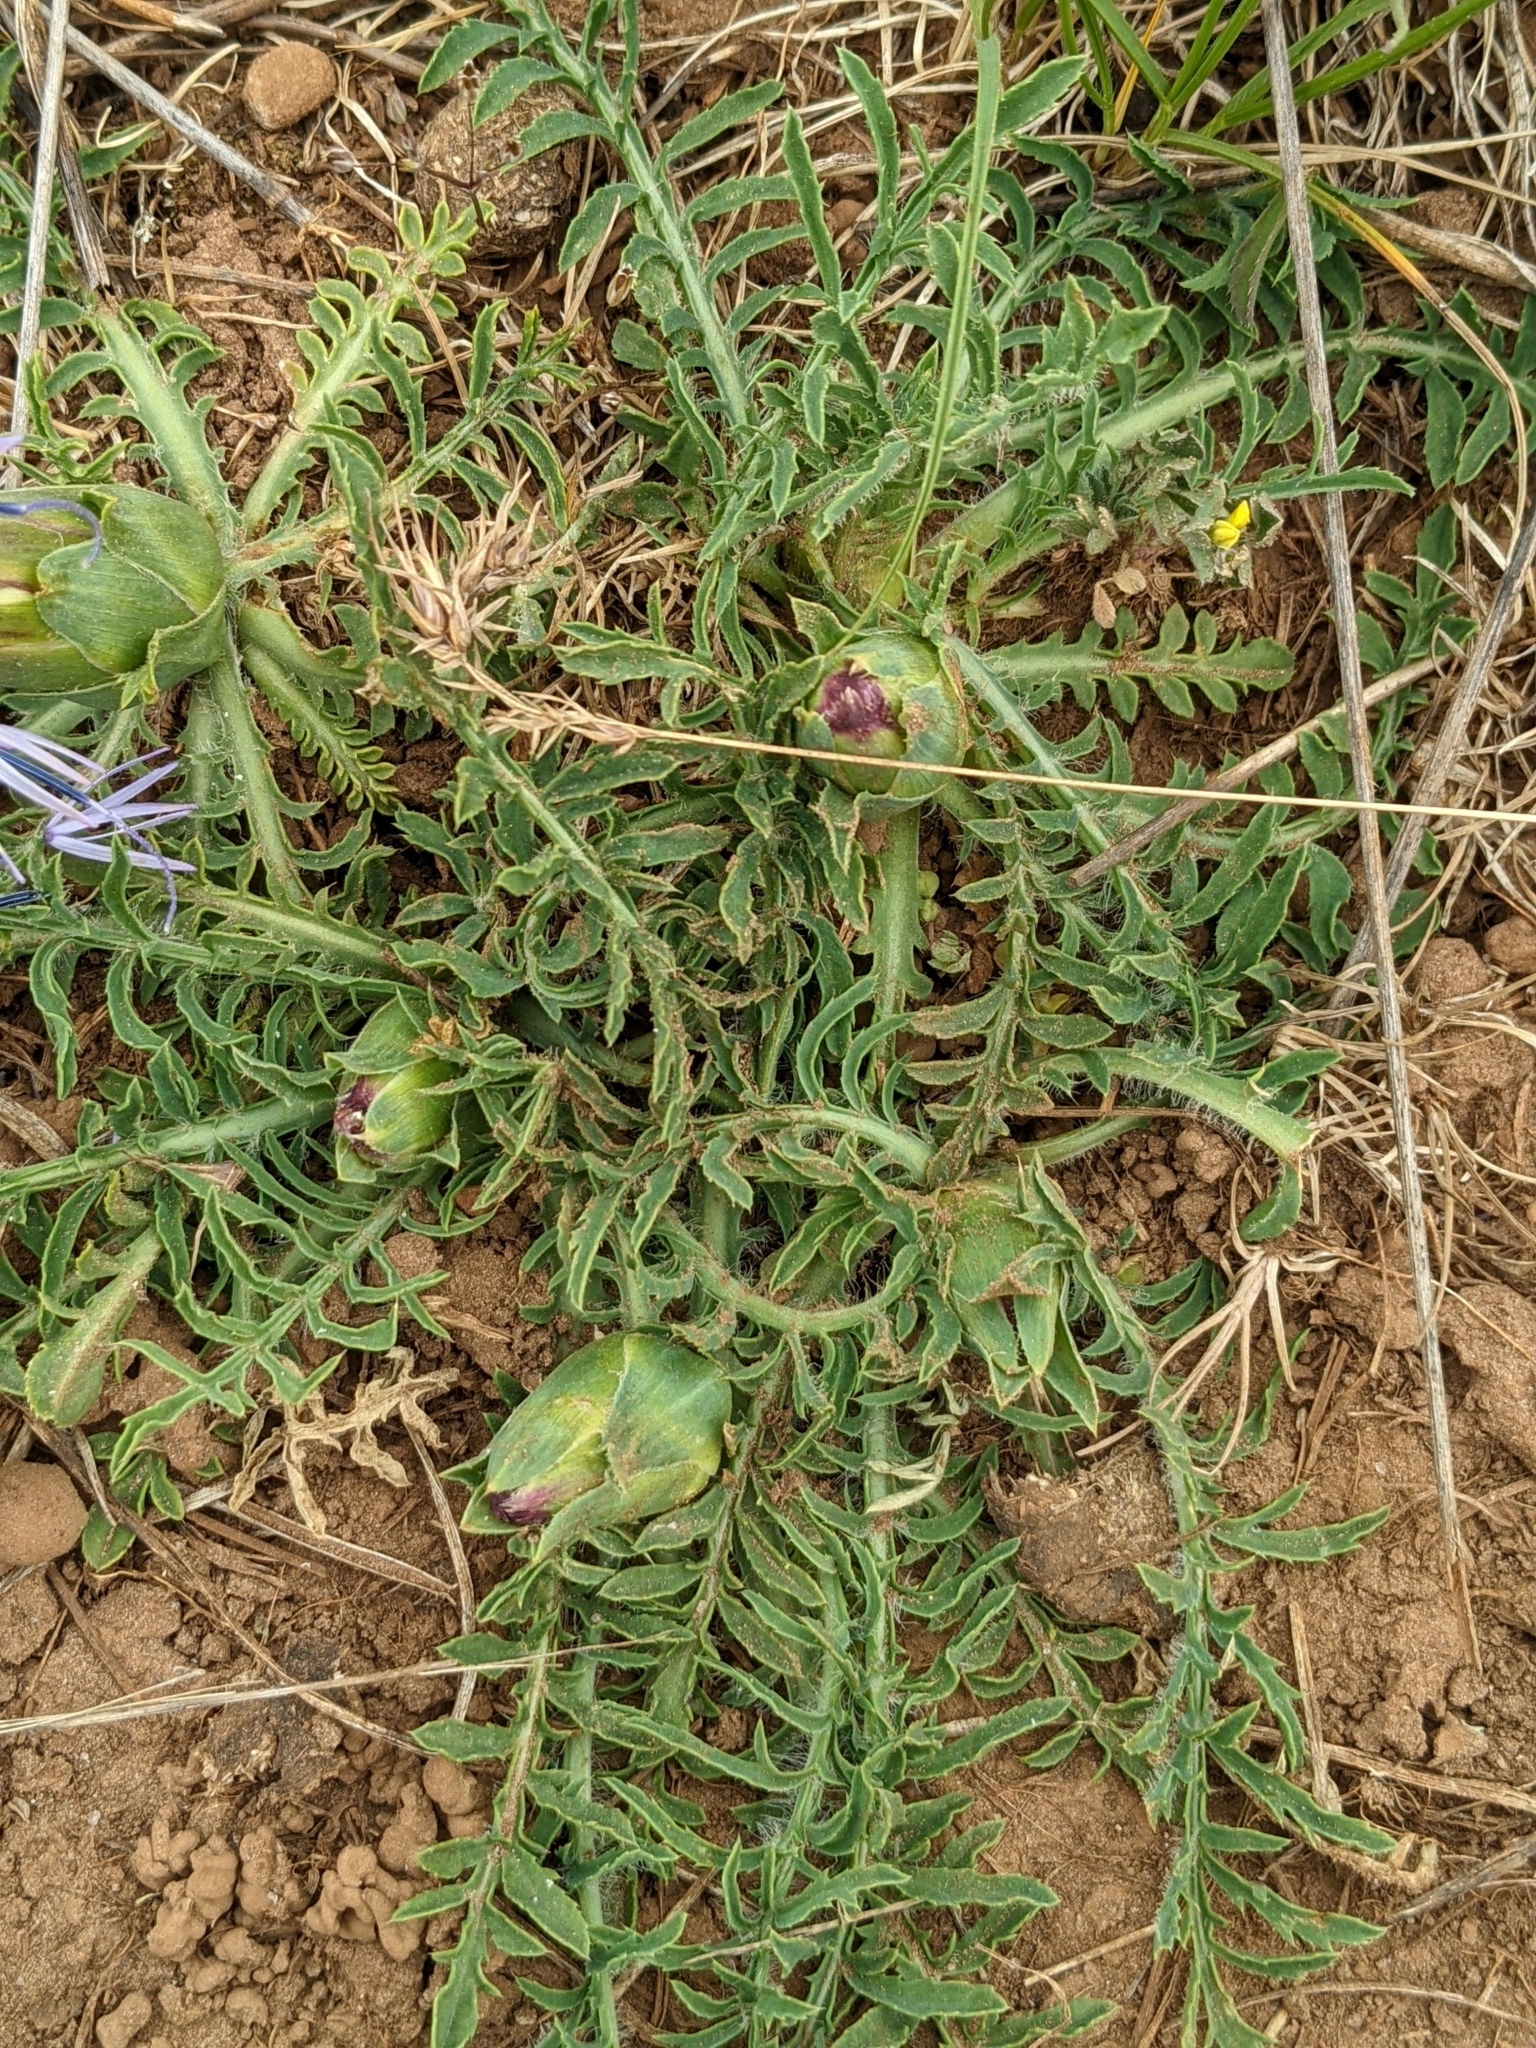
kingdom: Plantae
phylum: Tracheophyta
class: Magnoliopsida
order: Asterales
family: Asteraceae
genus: Carduncellus
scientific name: Carduncellus mitissimus
